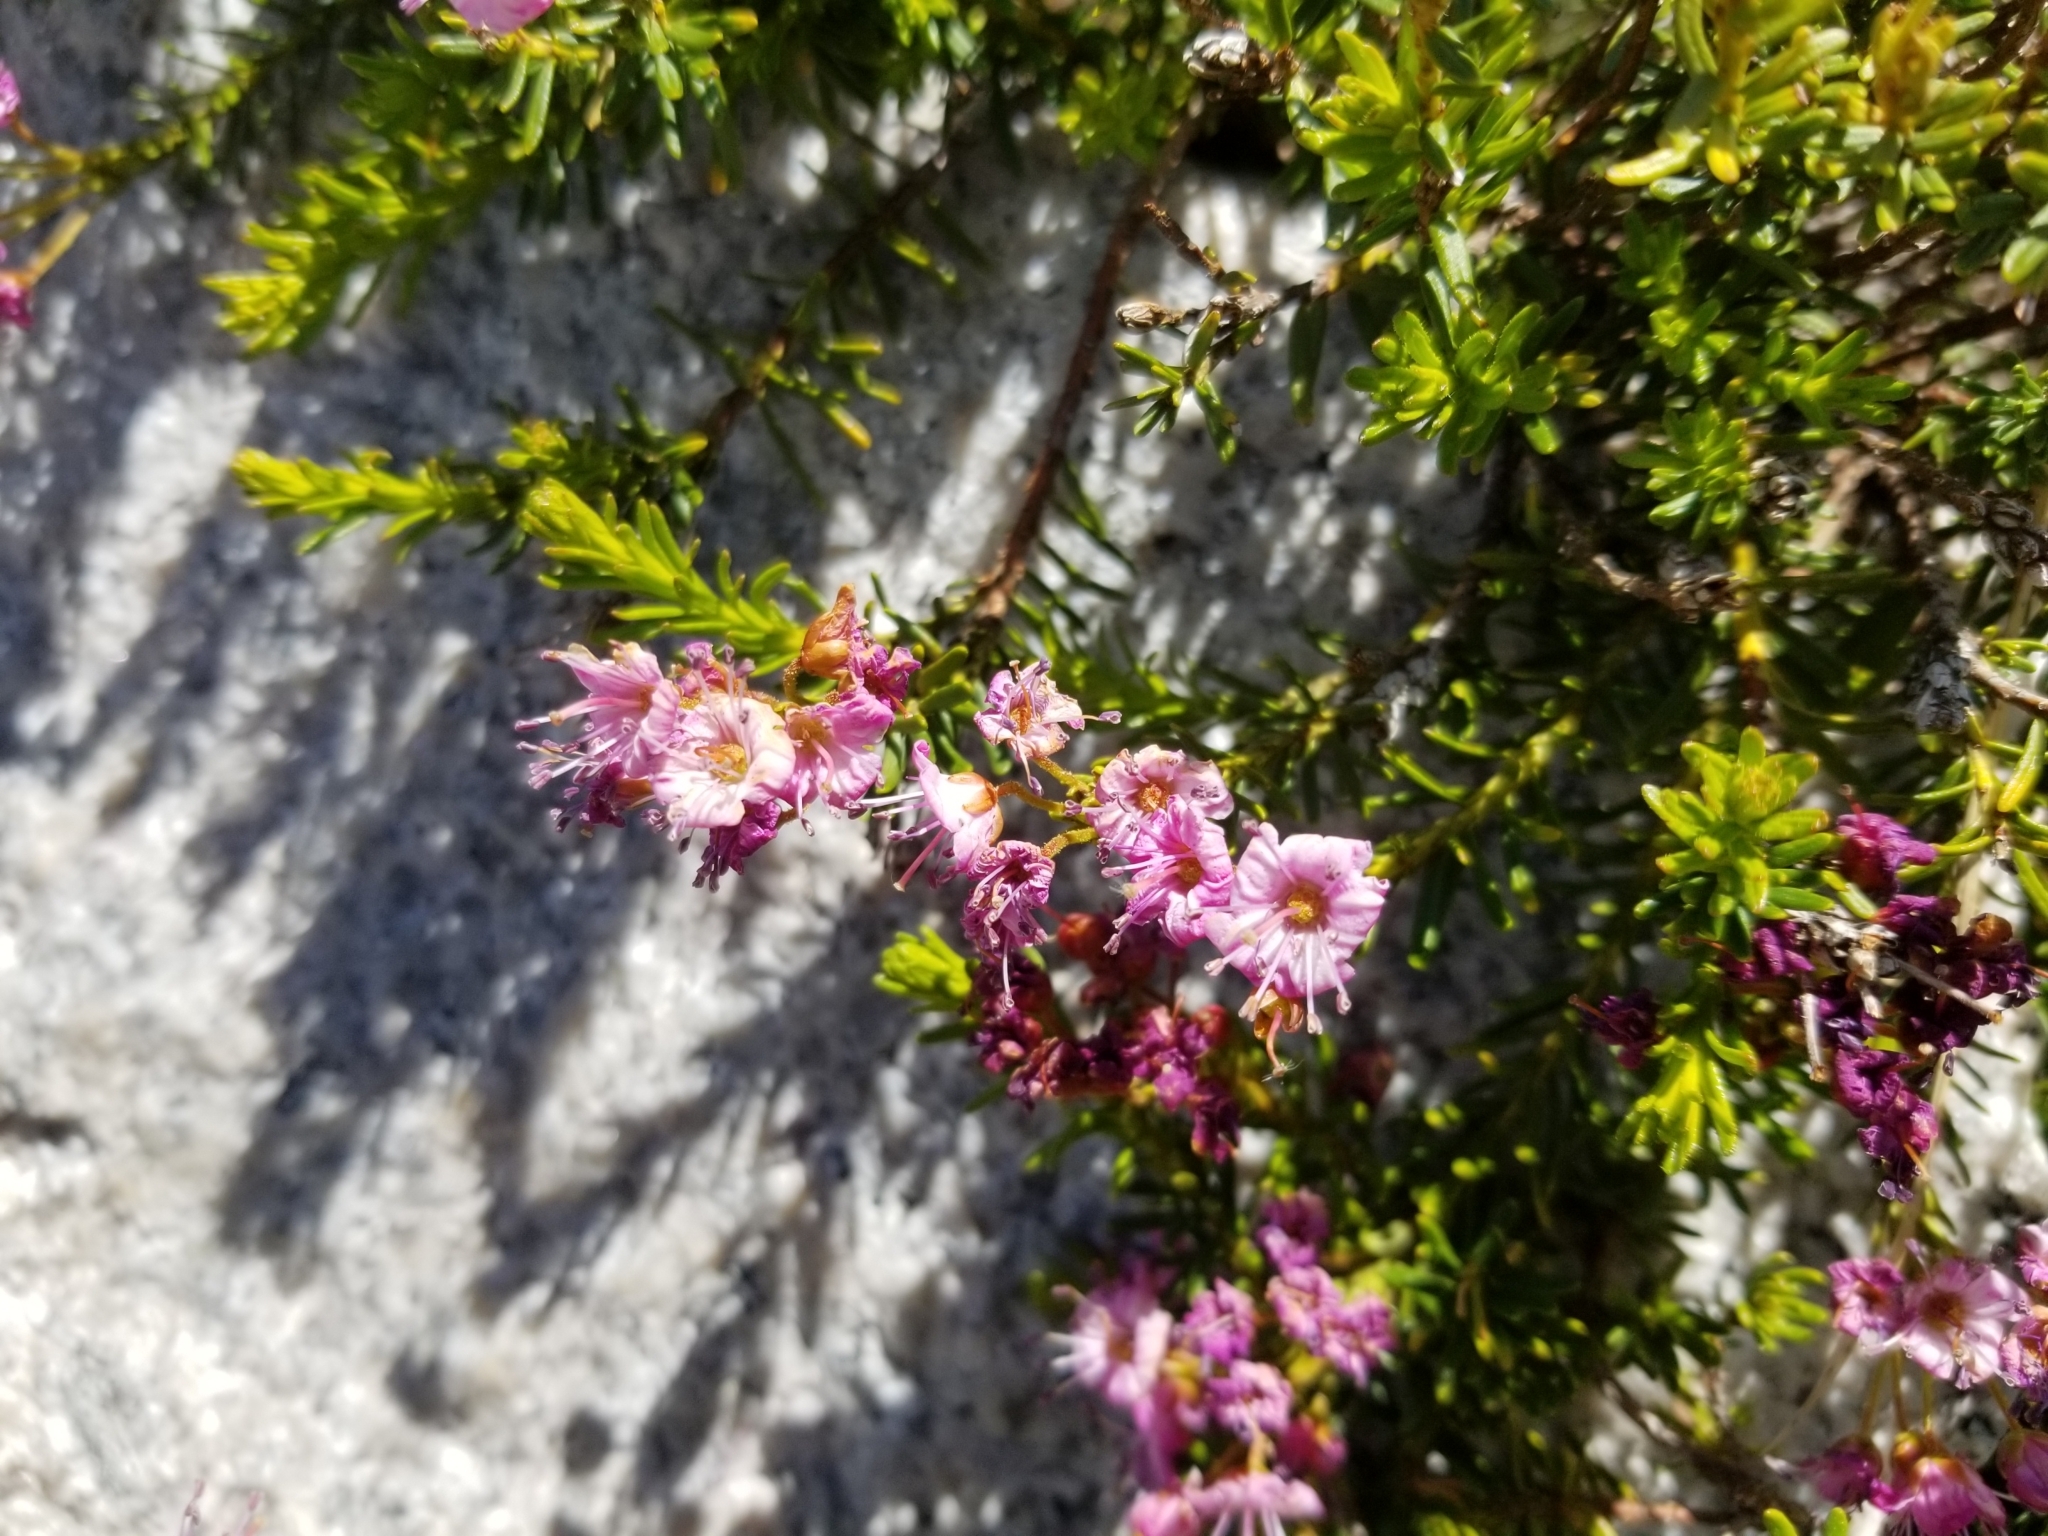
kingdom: Plantae
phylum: Tracheophyta
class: Magnoliopsida
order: Ericales
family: Ericaceae
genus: Phyllodoce
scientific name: Phyllodoce breweri
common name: Brewer's mountain-heather
